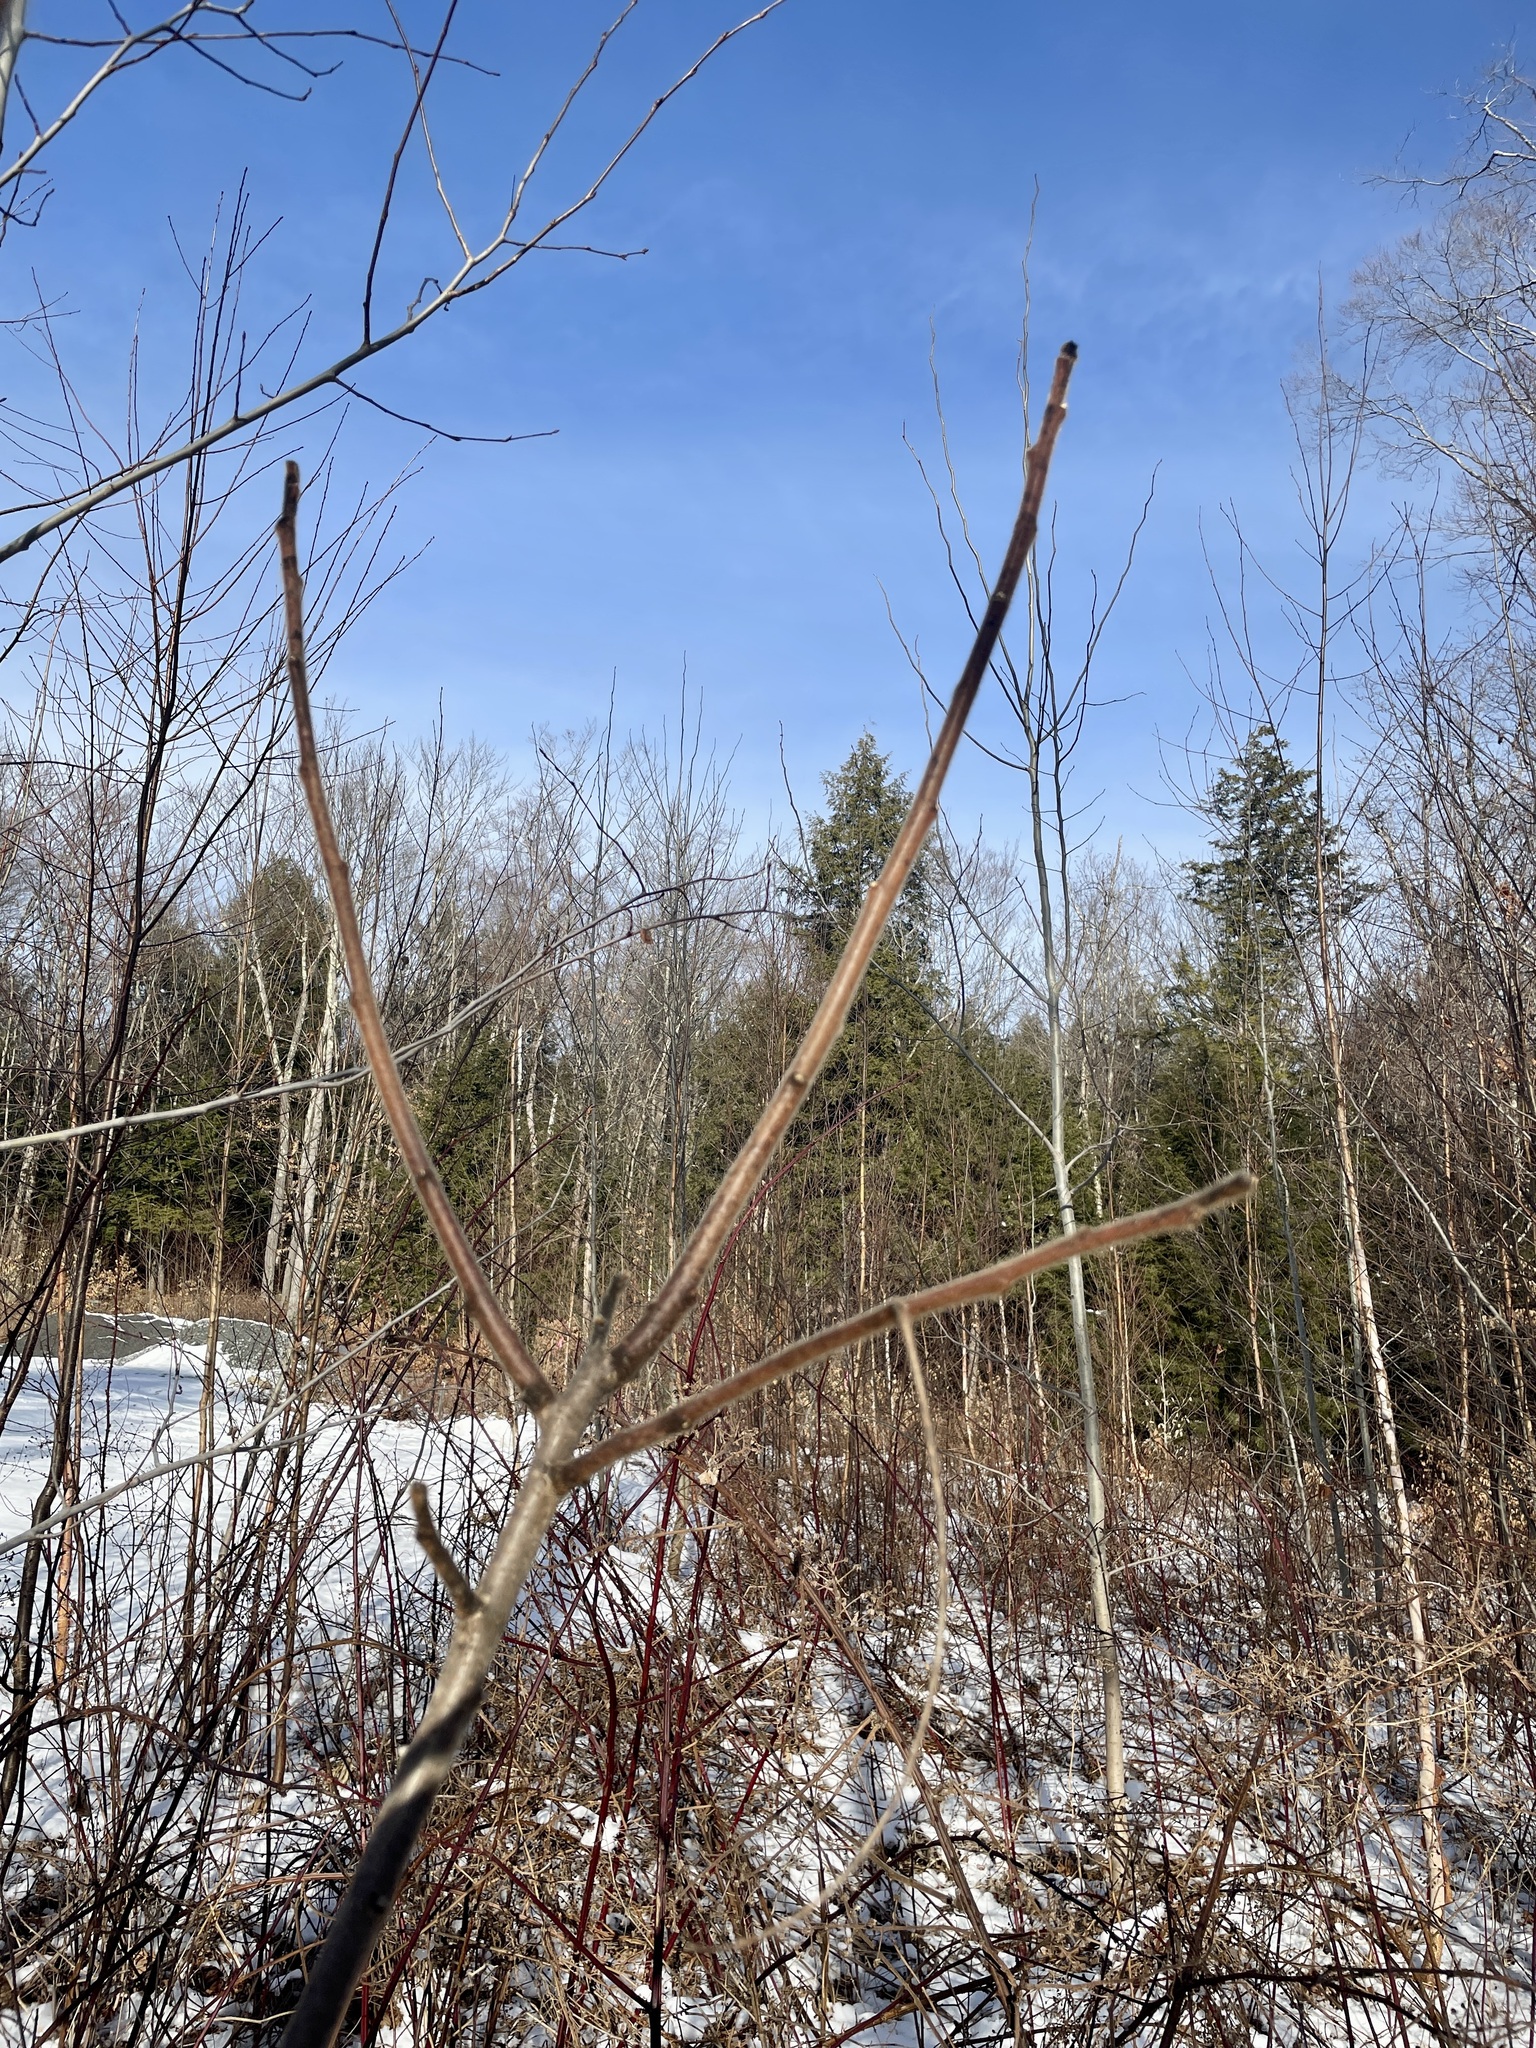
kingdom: Plantae
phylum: Tracheophyta
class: Magnoliopsida
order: Sapindales
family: Anacardiaceae
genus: Rhus
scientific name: Rhus typhina
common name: Staghorn sumac
